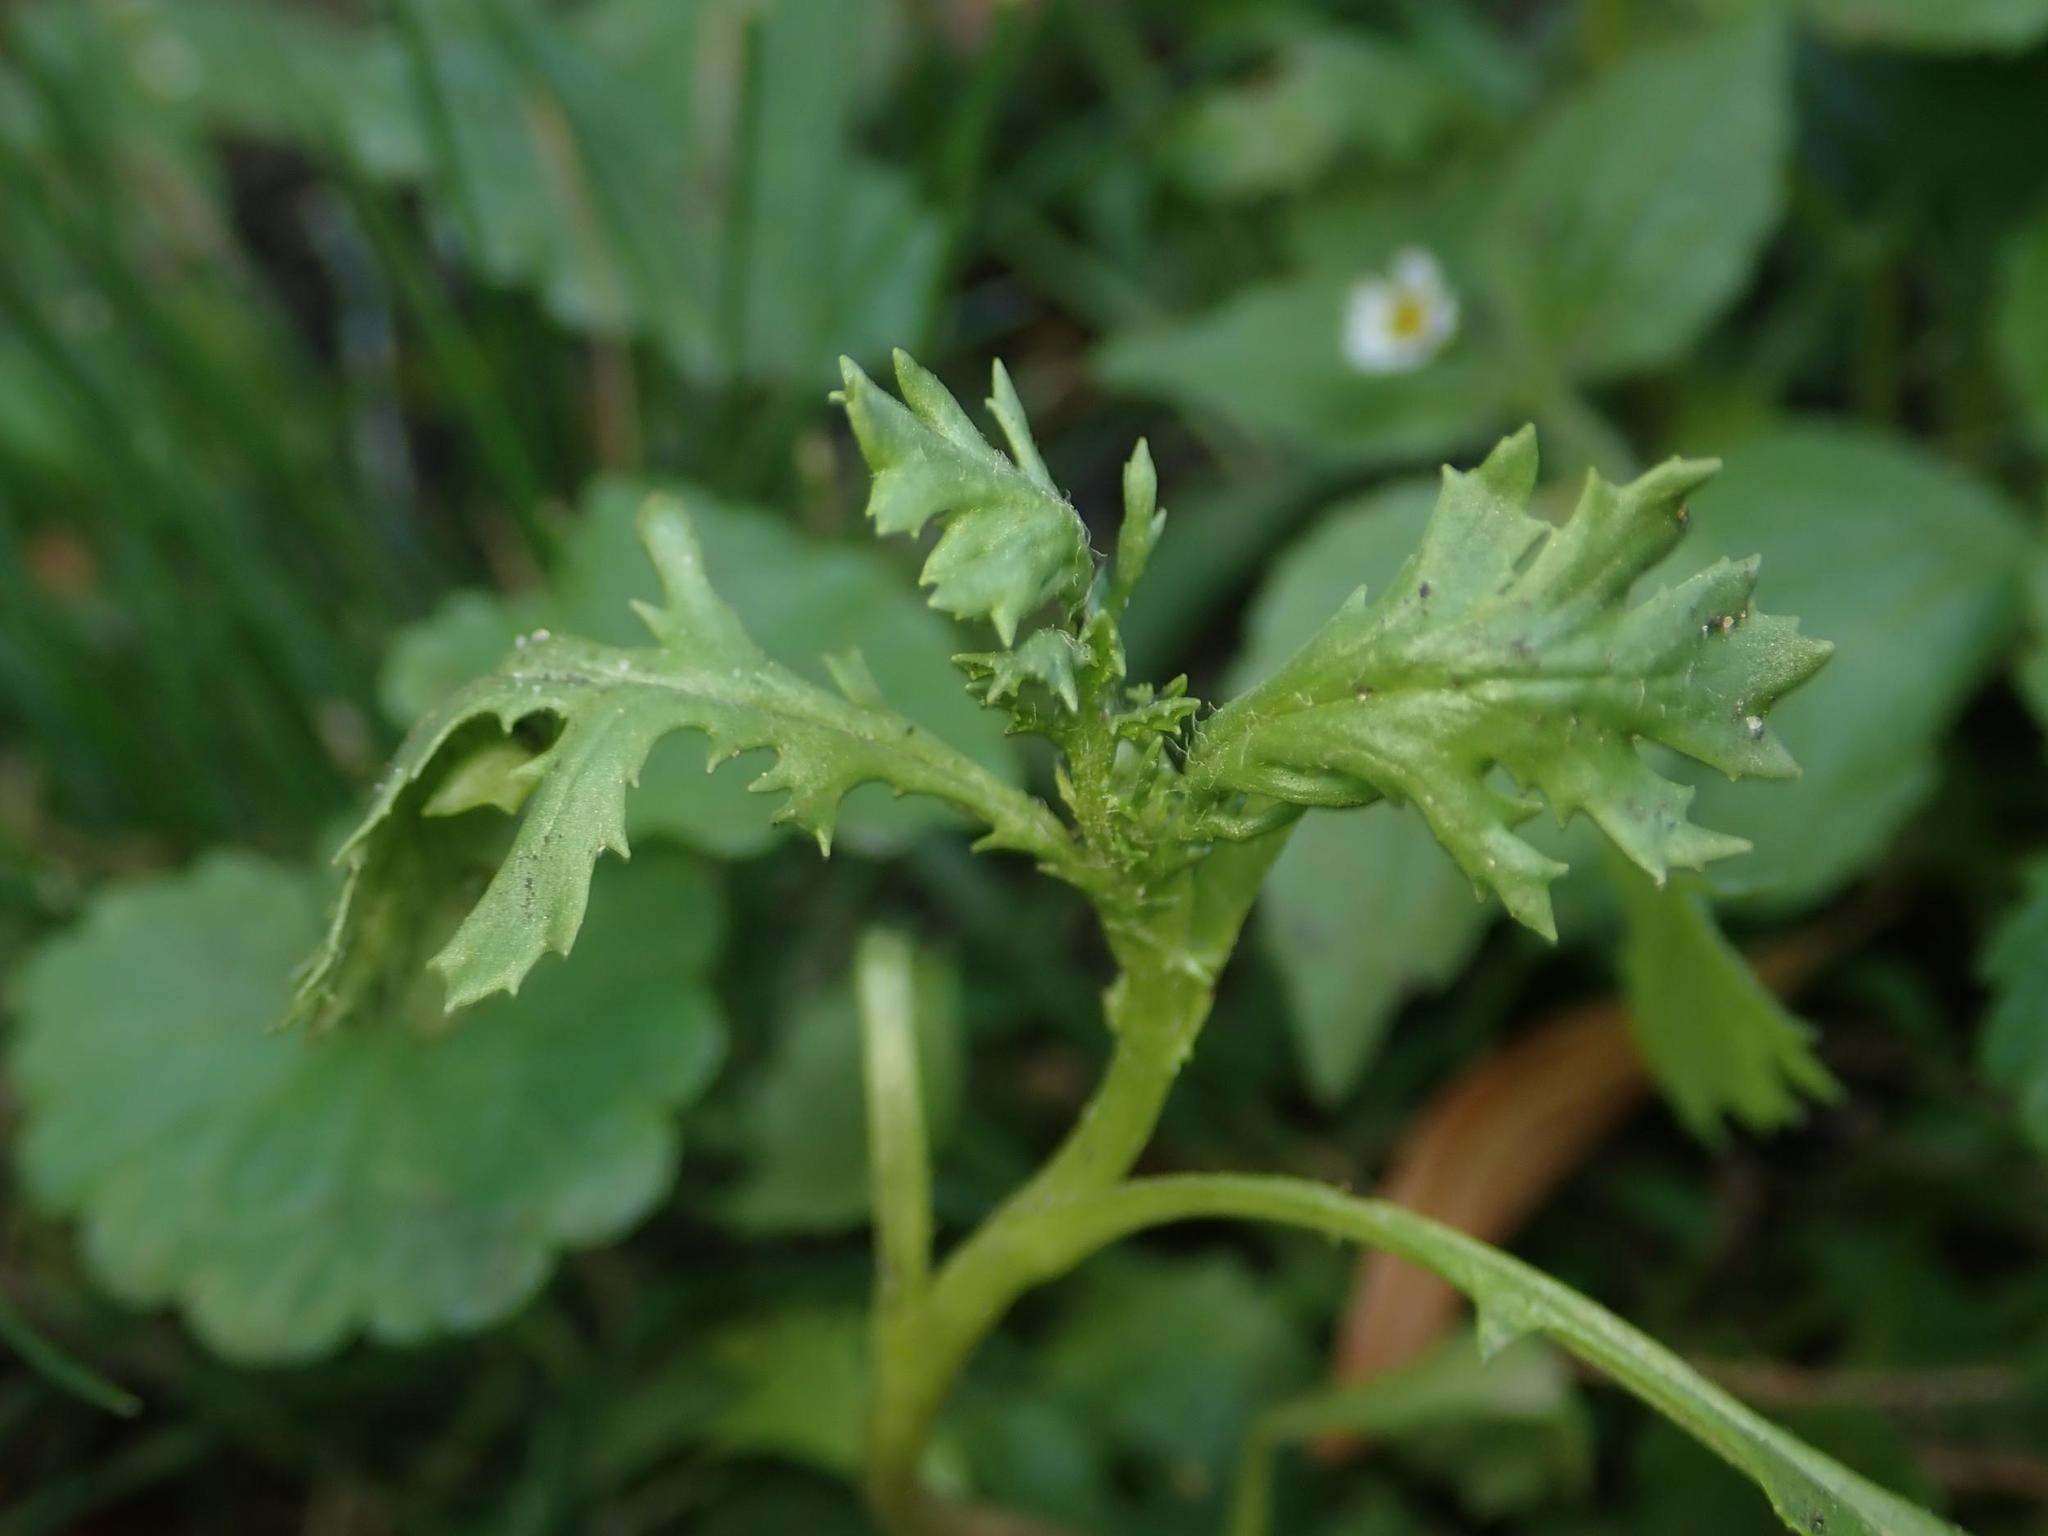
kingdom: Plantae
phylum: Tracheophyta
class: Magnoliopsida
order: Asterales
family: Asteraceae
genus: Senecio
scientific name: Senecio vulgaris
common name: Old-man-in-the-spring
